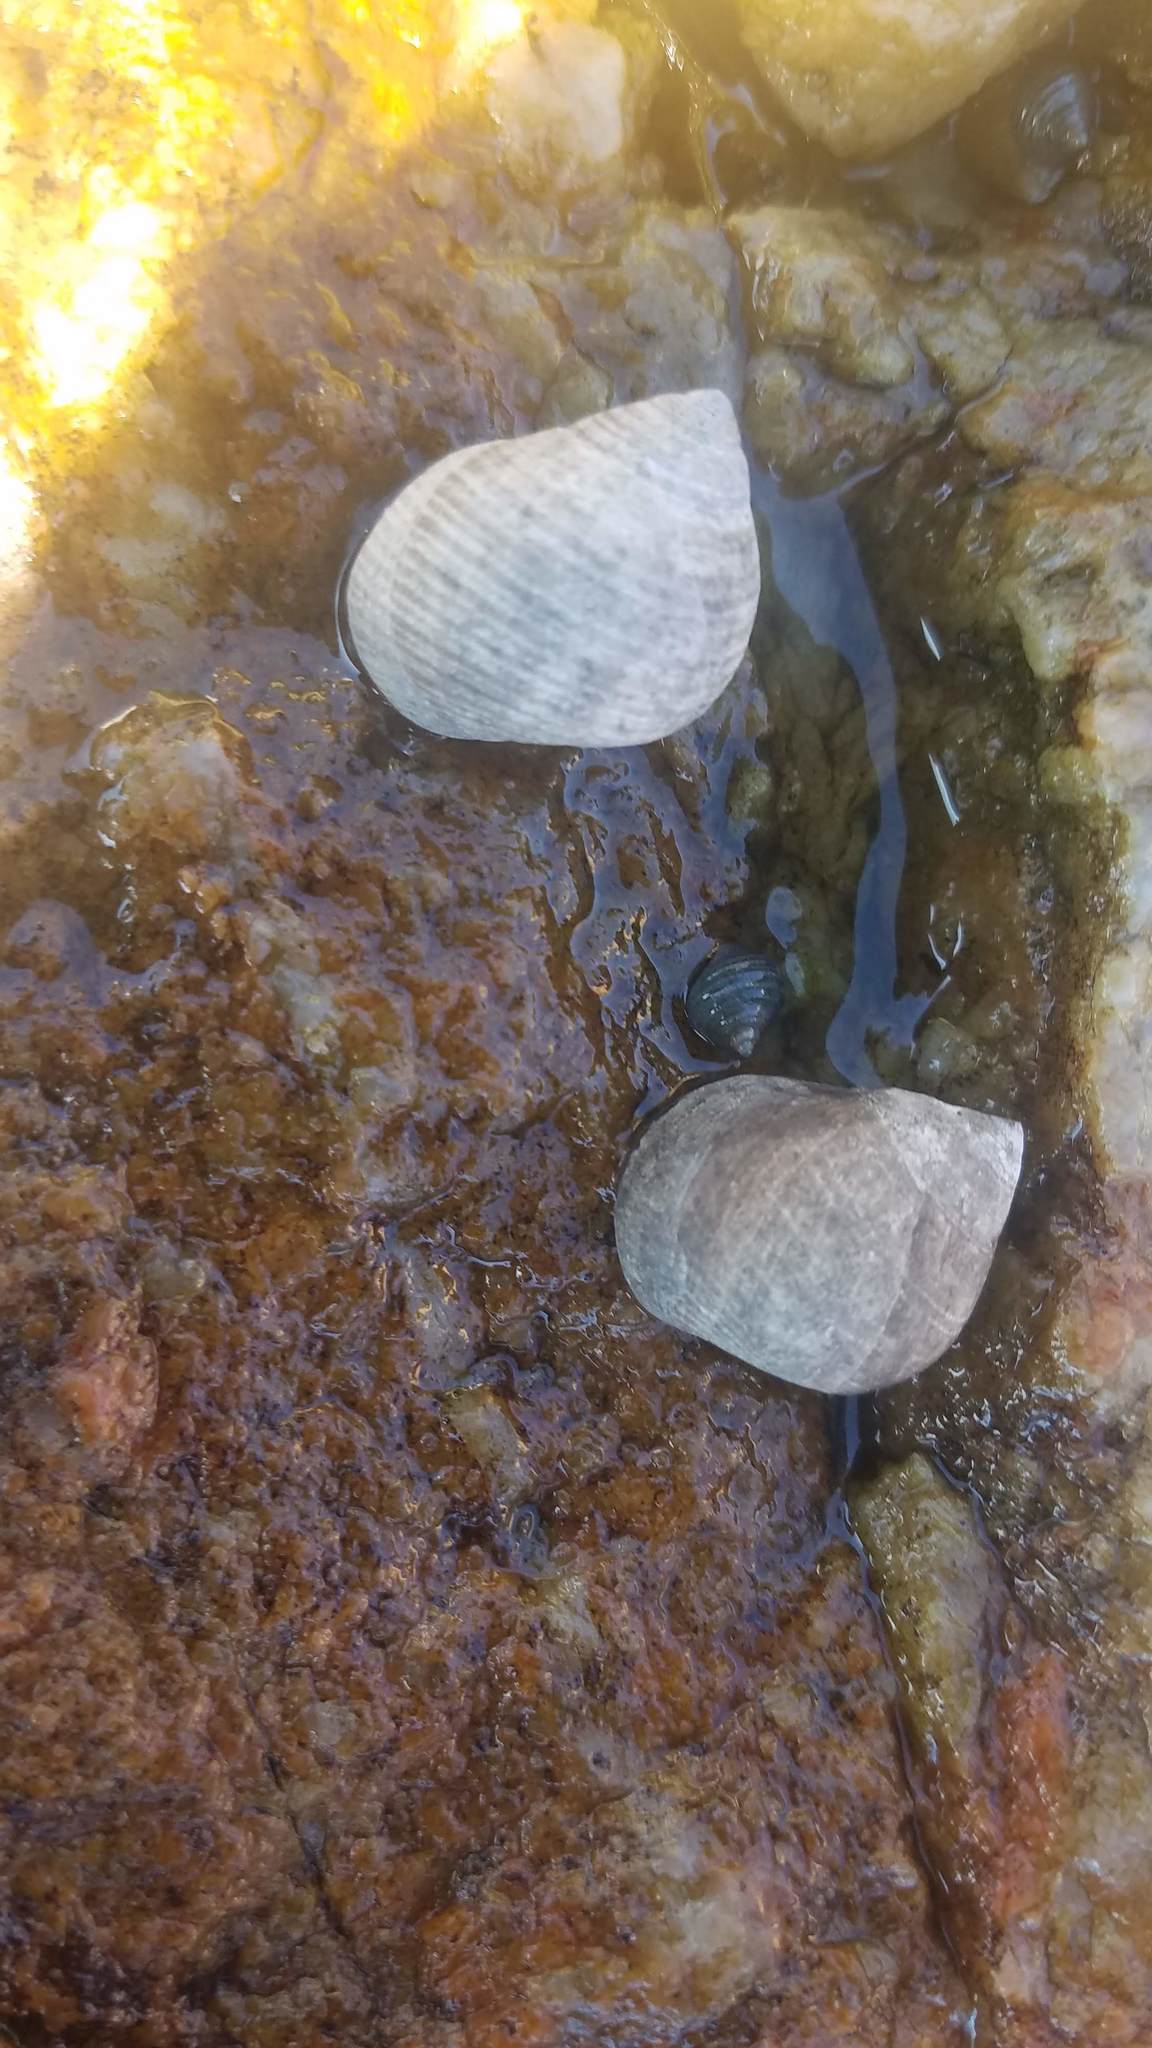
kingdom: Animalia
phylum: Mollusca
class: Gastropoda
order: Littorinimorpha
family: Littorinidae
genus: Littorina
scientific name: Littorina littorea
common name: Common periwinkle
